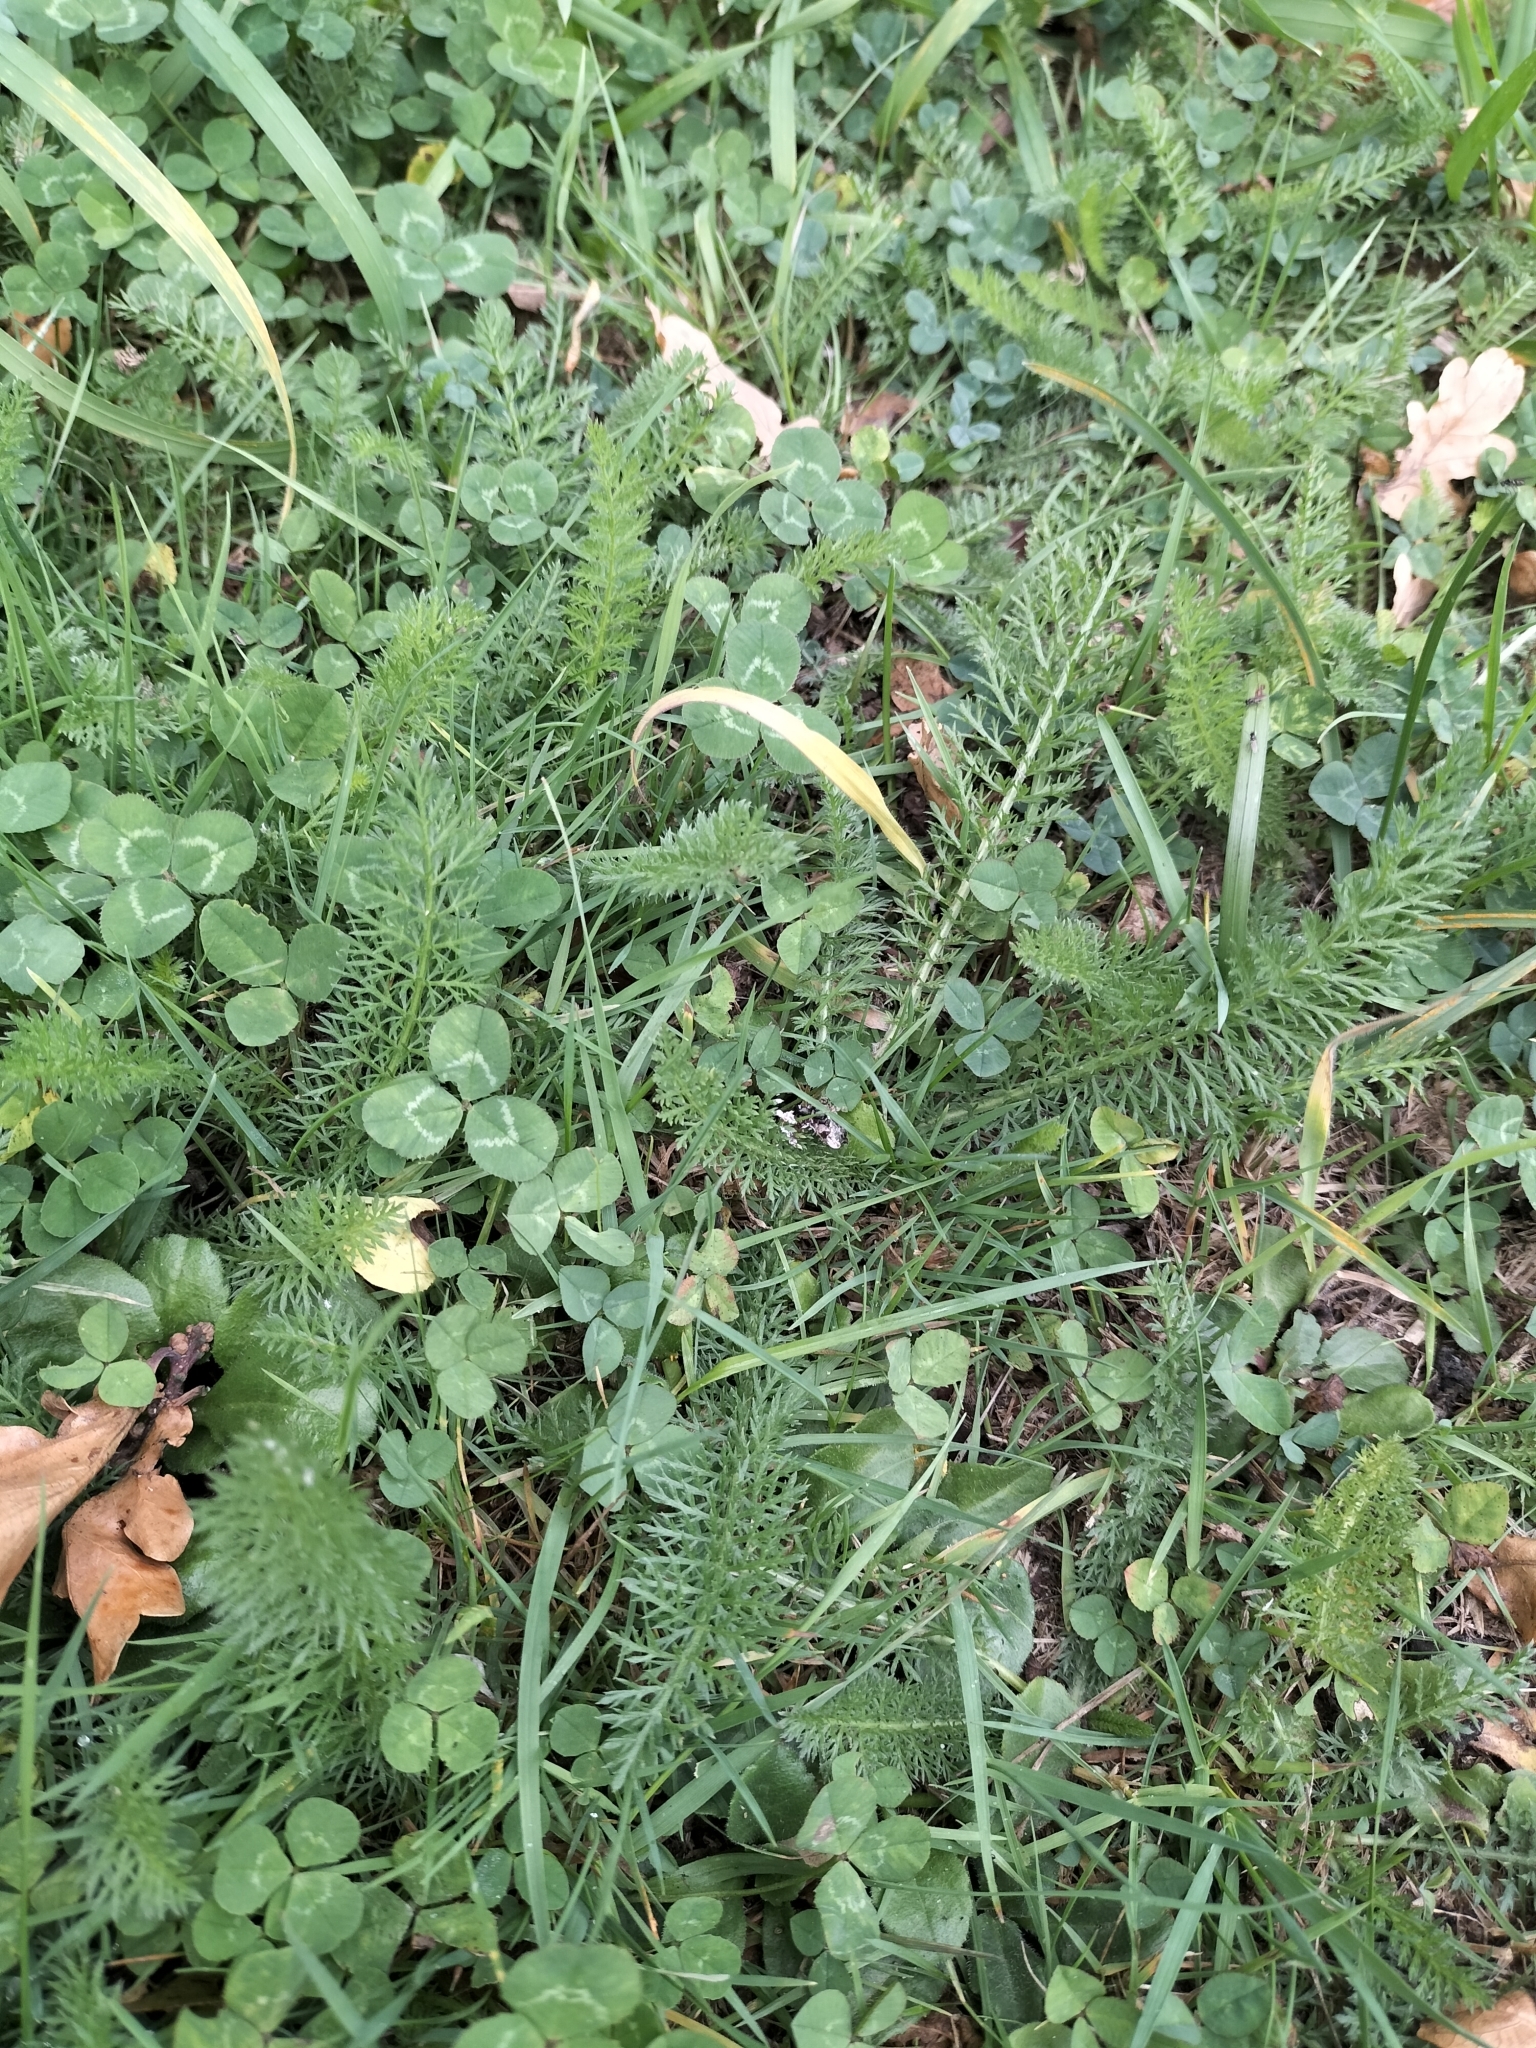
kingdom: Plantae
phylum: Tracheophyta
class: Magnoliopsida
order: Asterales
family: Asteraceae
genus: Achillea
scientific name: Achillea millefolium
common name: Yarrow
